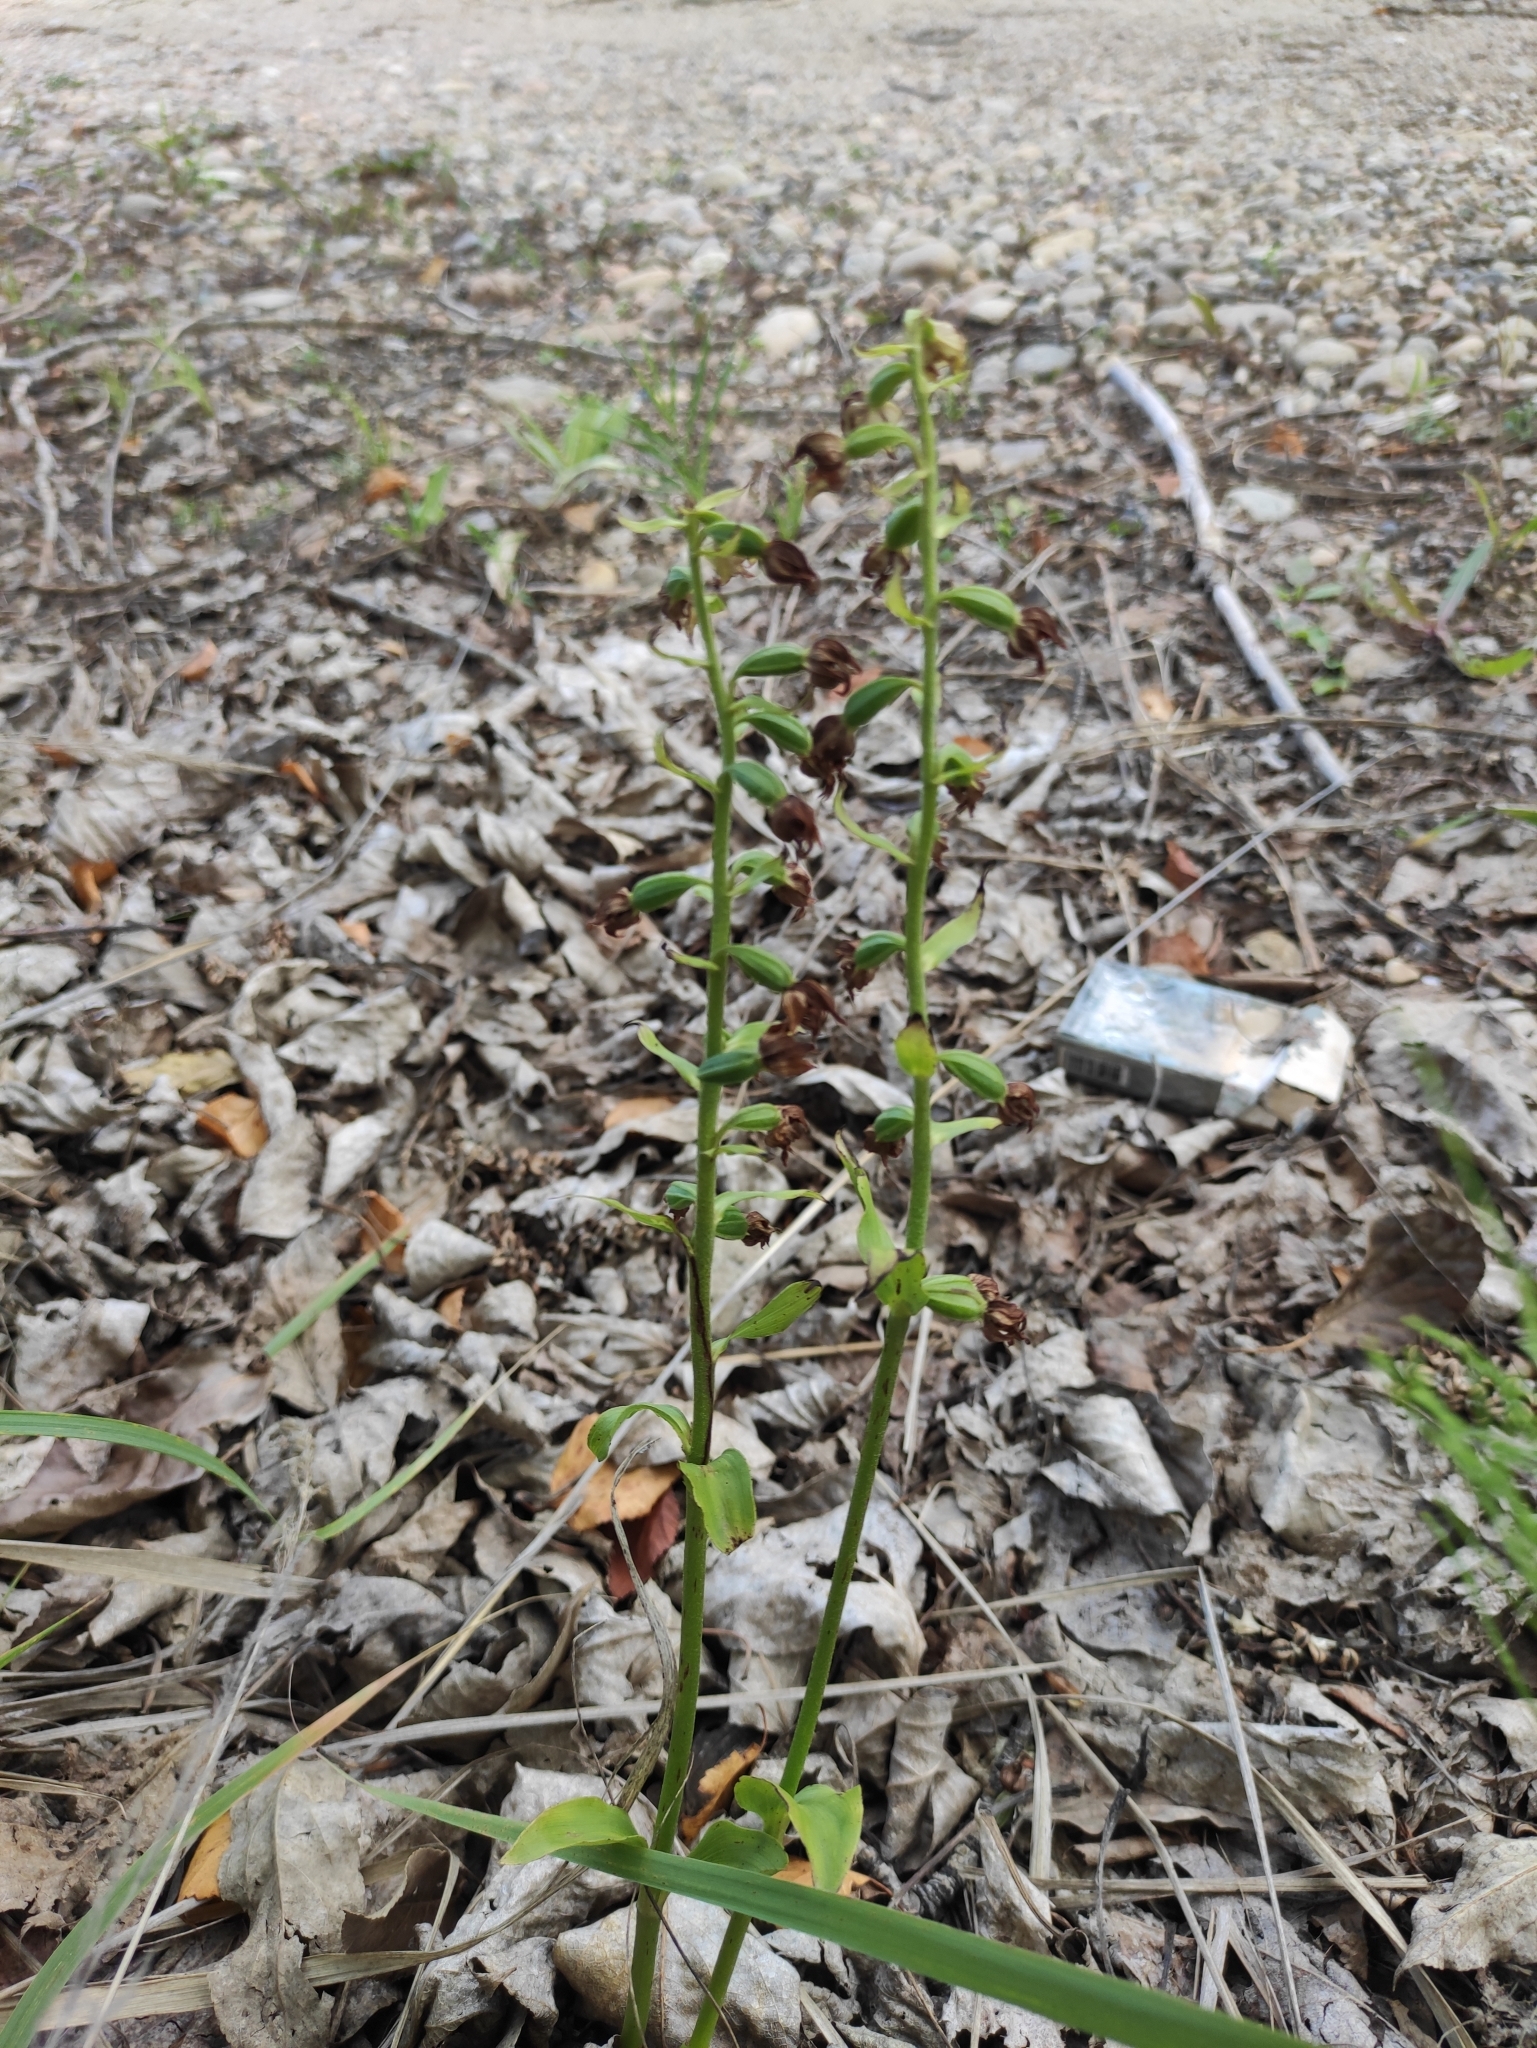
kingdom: Plantae
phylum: Tracheophyta
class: Liliopsida
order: Asparagales
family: Orchidaceae
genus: Epipactis
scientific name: Epipactis helleborine
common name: Broad-leaved helleborine
